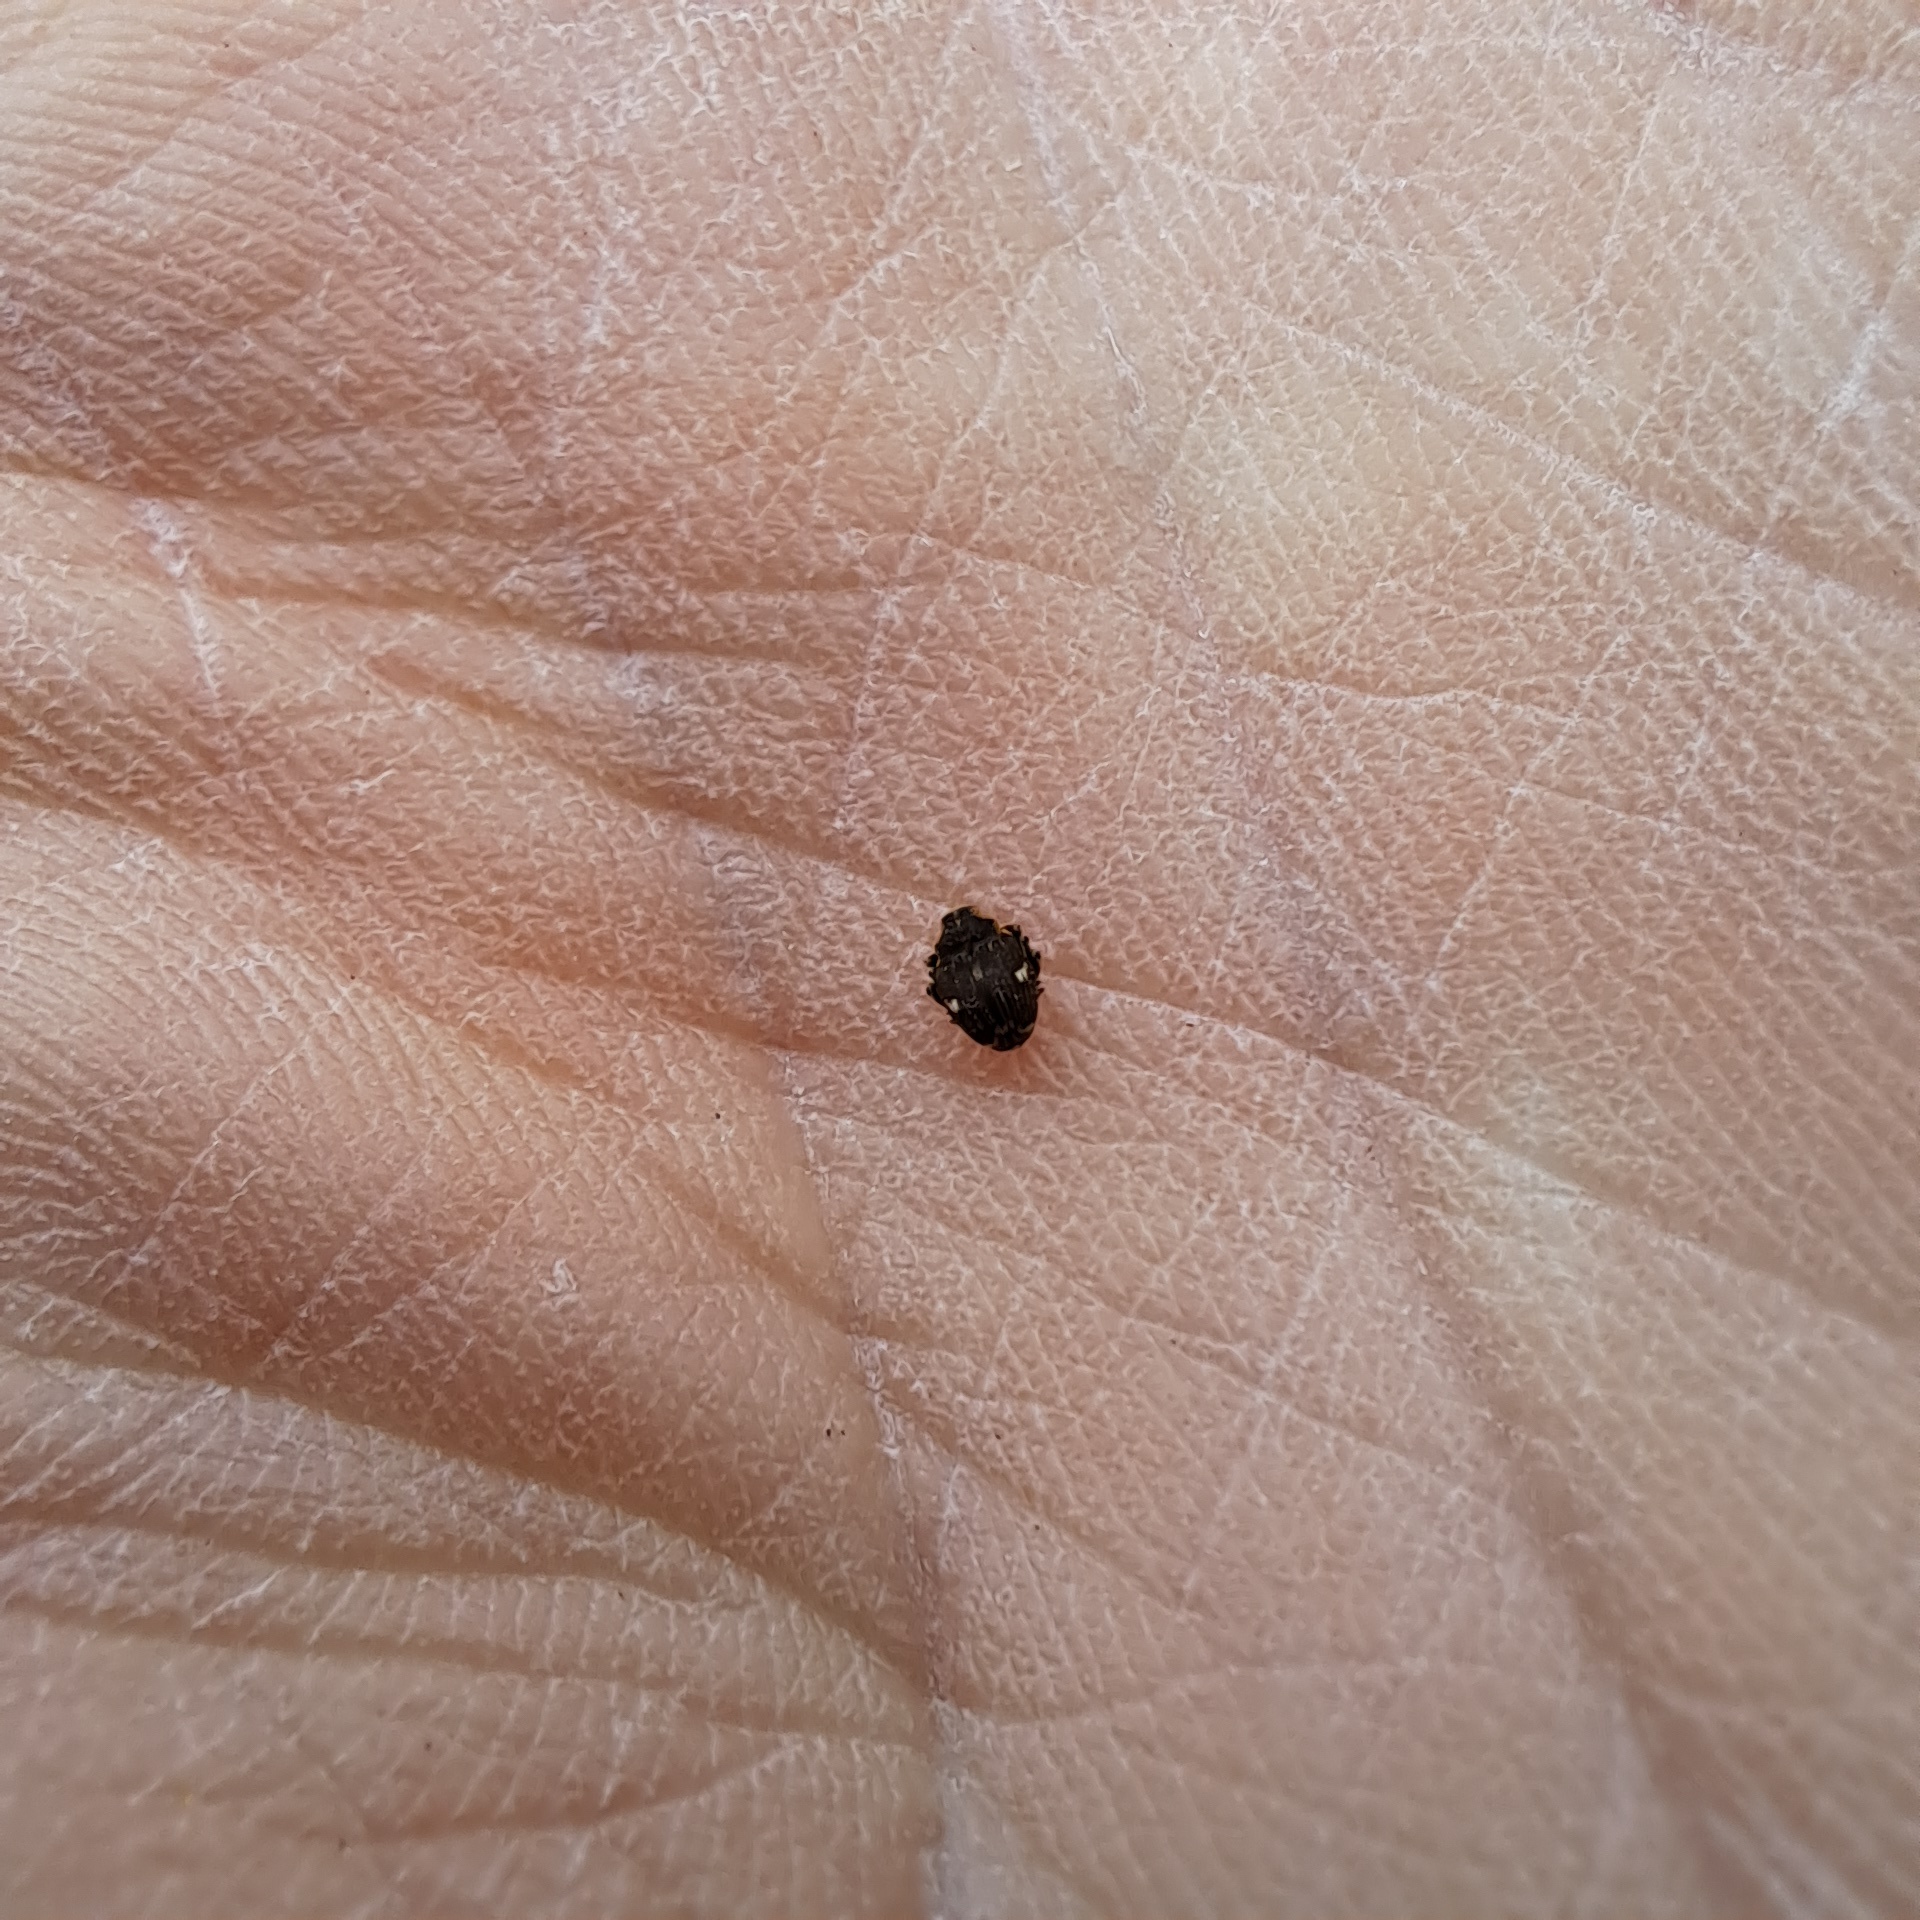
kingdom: Animalia
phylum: Arthropoda
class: Insecta
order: Coleoptera
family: Curculionidae
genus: Nedyus
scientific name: Nedyus quadrimaculatus
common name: Small nettle weevil
